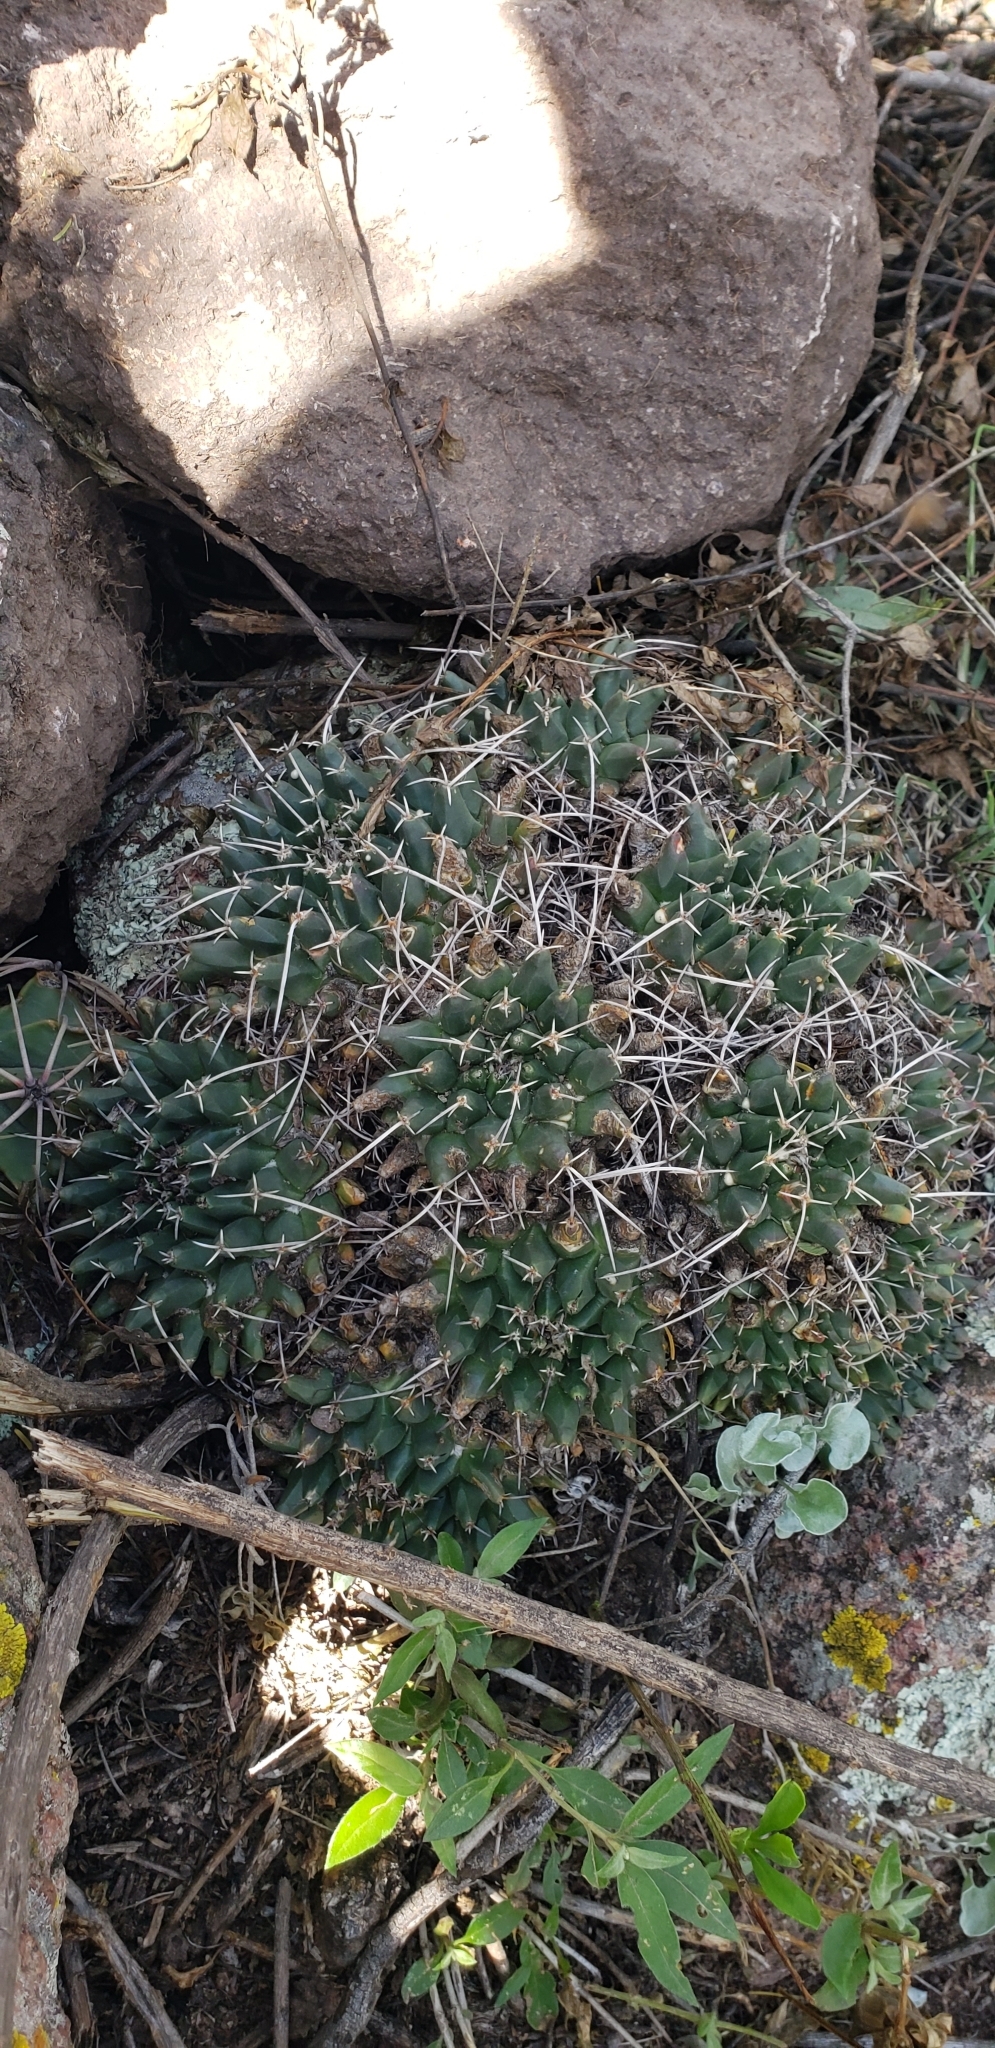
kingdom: Plantae
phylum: Tracheophyta
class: Magnoliopsida
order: Caryophyllales
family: Cactaceae
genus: Mammillaria
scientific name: Mammillaria magnimamma
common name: Mexican pincushion
